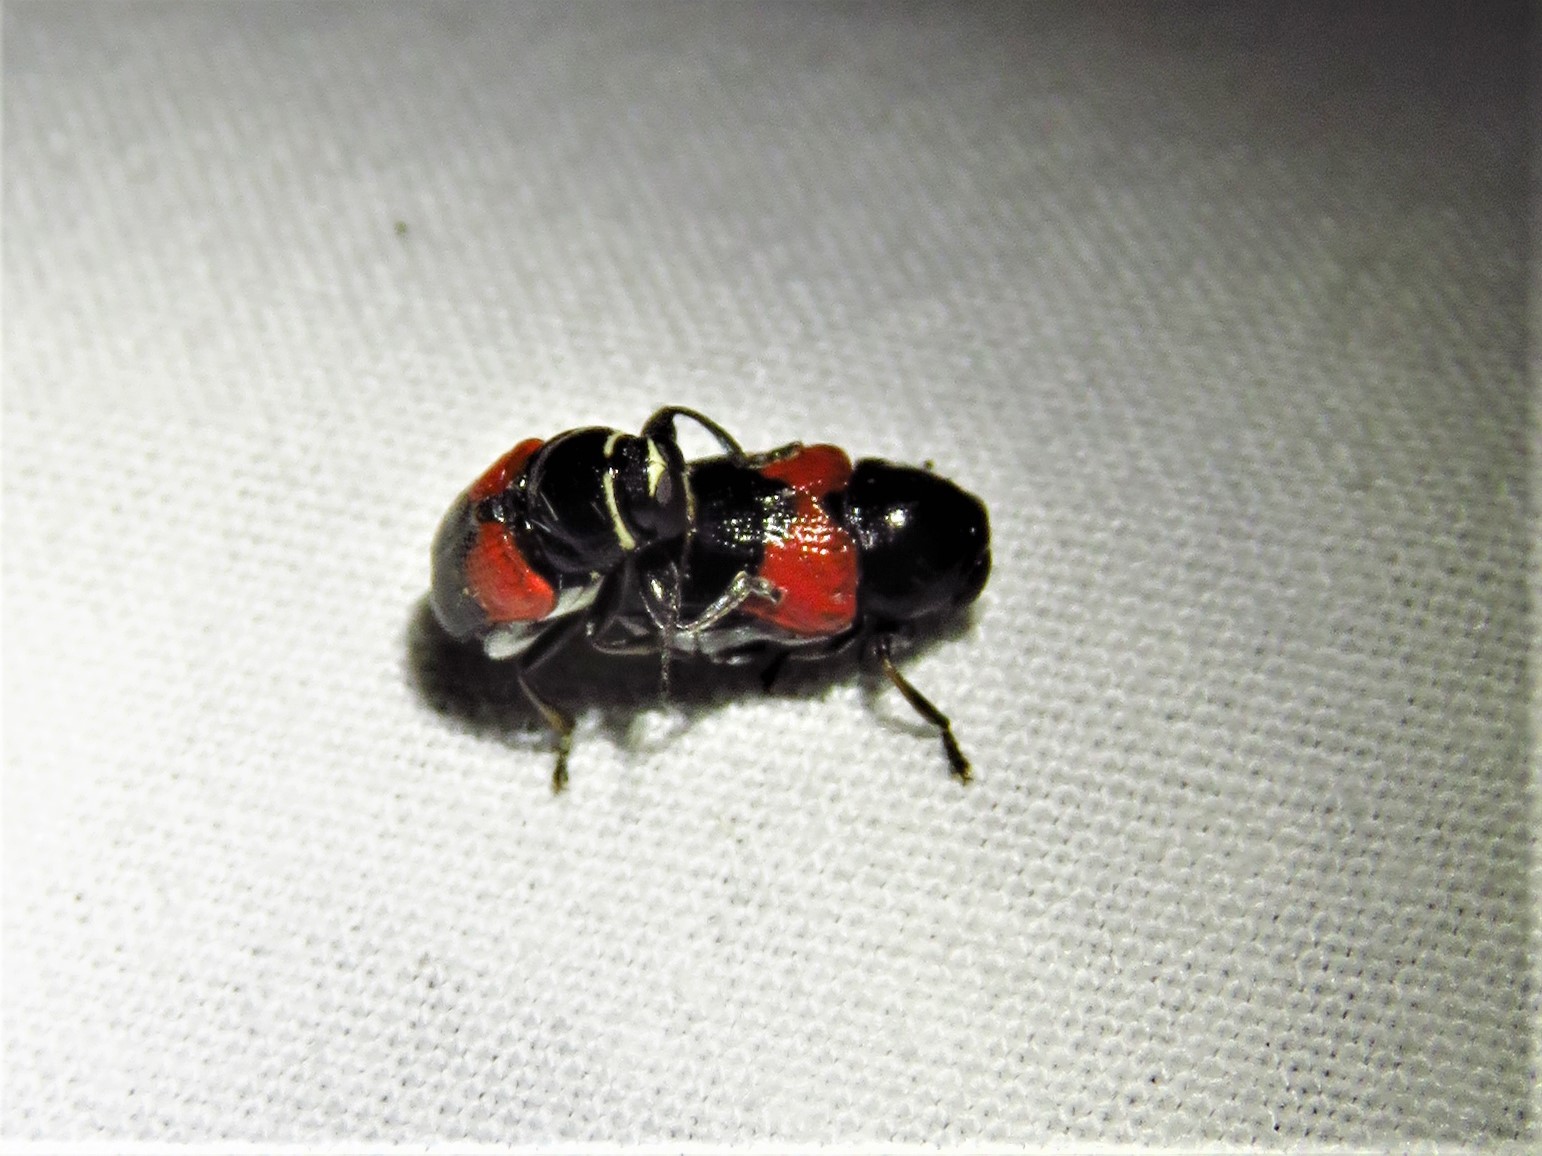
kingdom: Animalia
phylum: Arthropoda
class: Insecta
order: Coleoptera
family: Chrysomelidae
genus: Scelolyperus
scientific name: Scelolyperus lecontii
